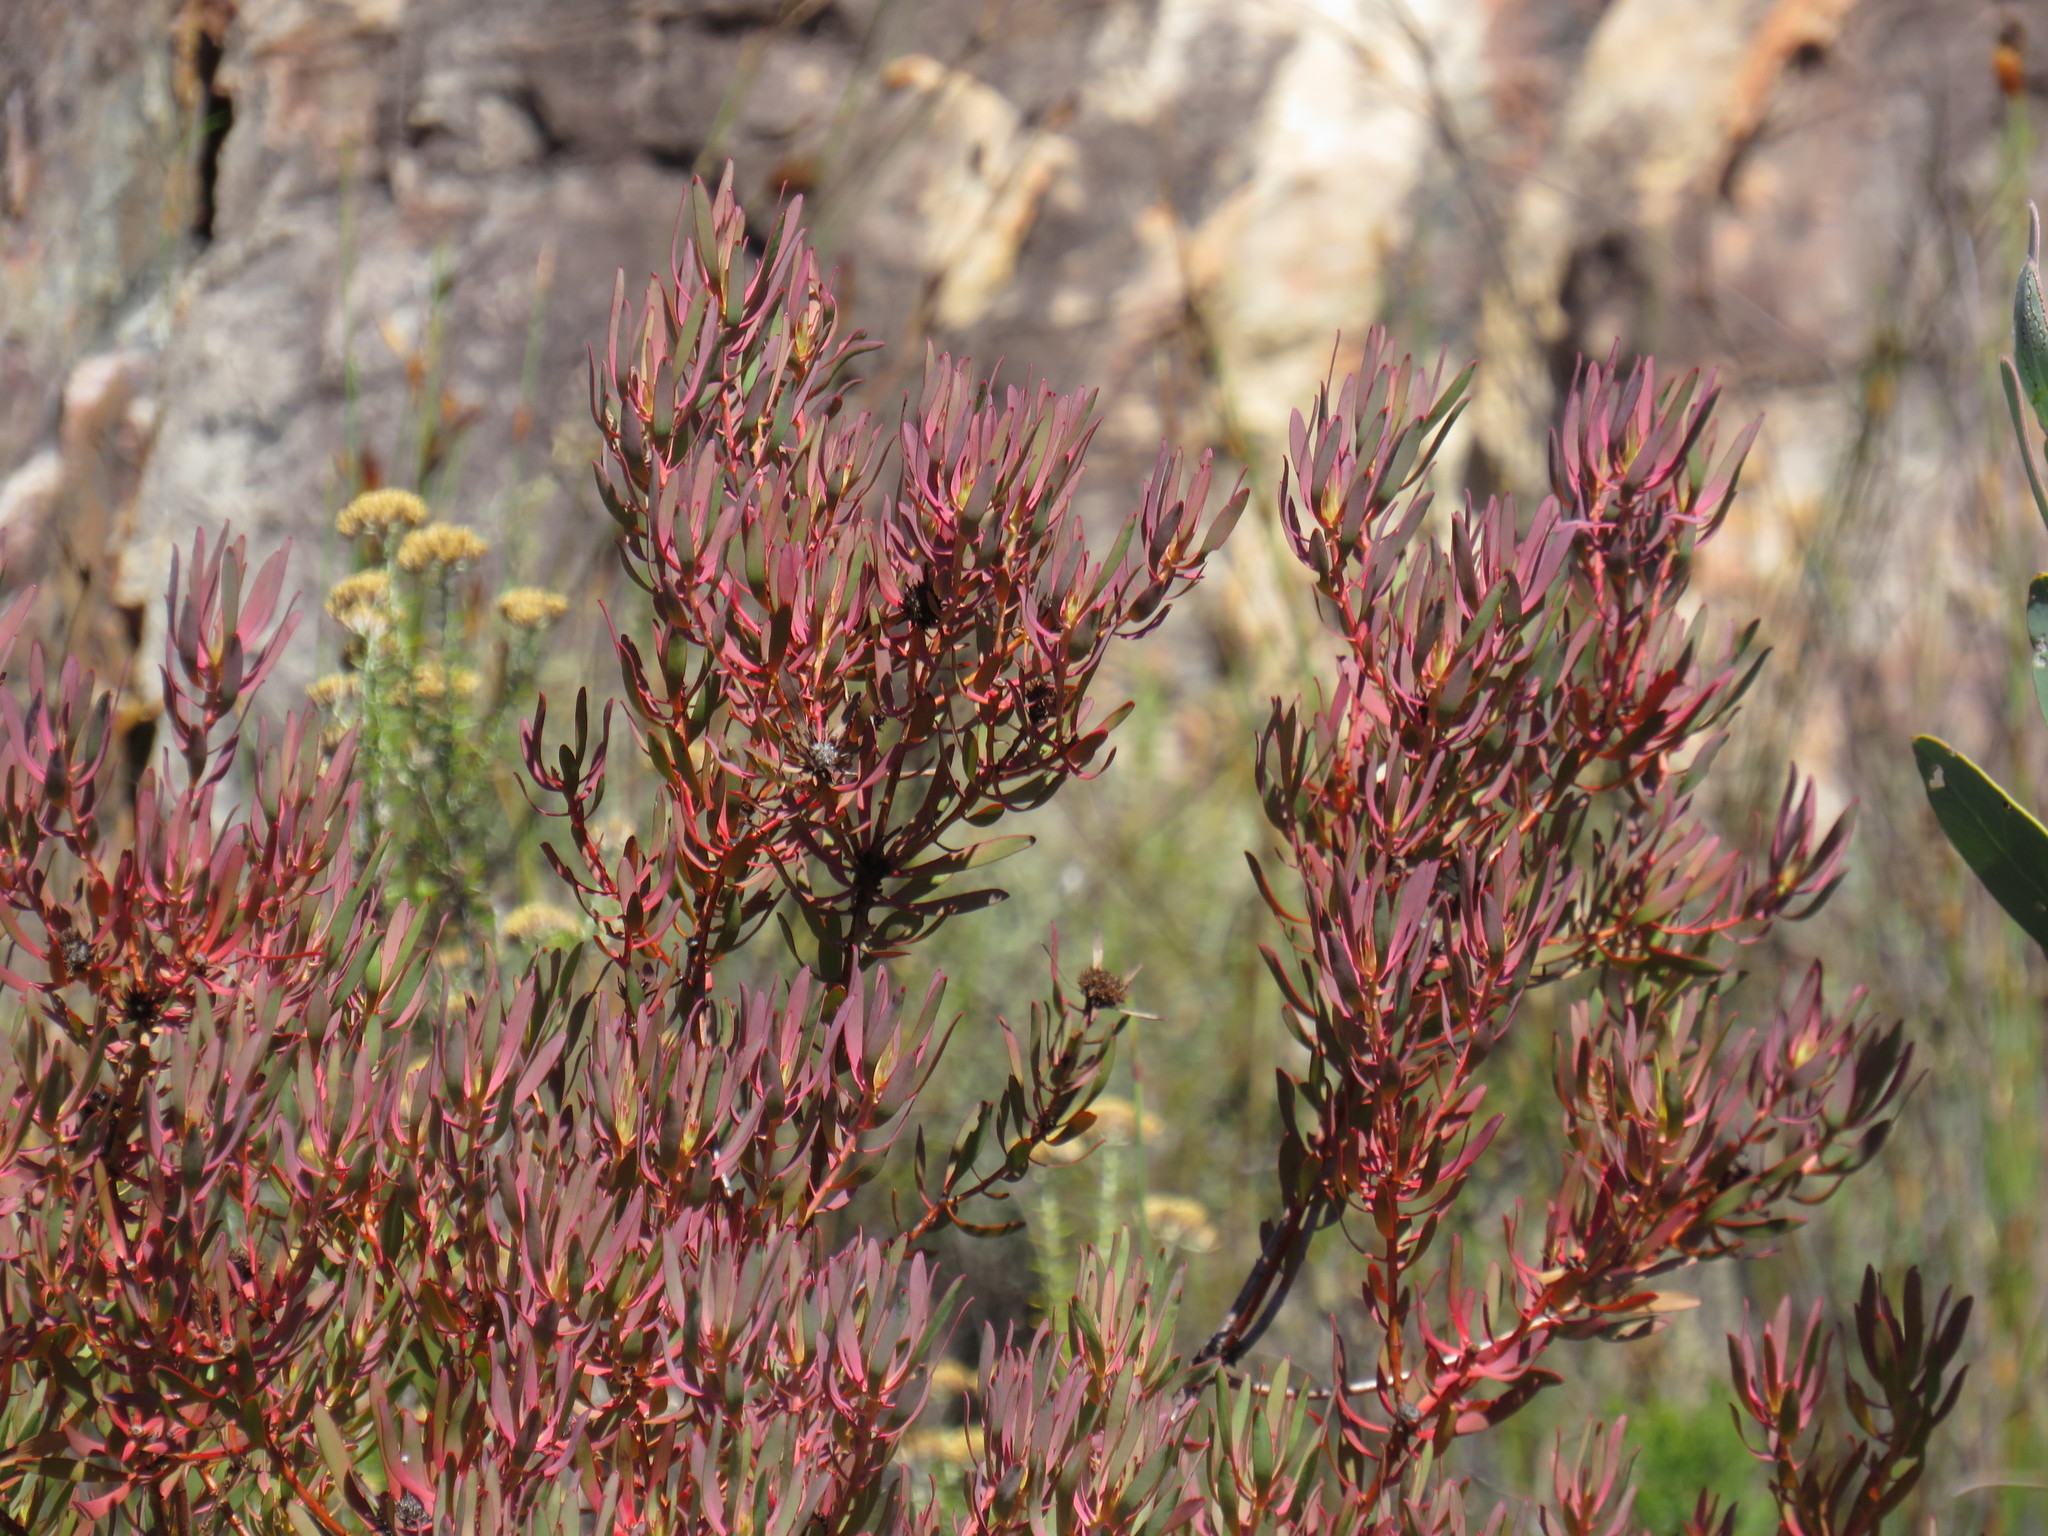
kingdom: Plantae
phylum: Tracheophyta
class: Magnoliopsida
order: Proteales
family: Proteaceae
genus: Leucadendron
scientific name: Leucadendron glaberrimum
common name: Common oily conebush
